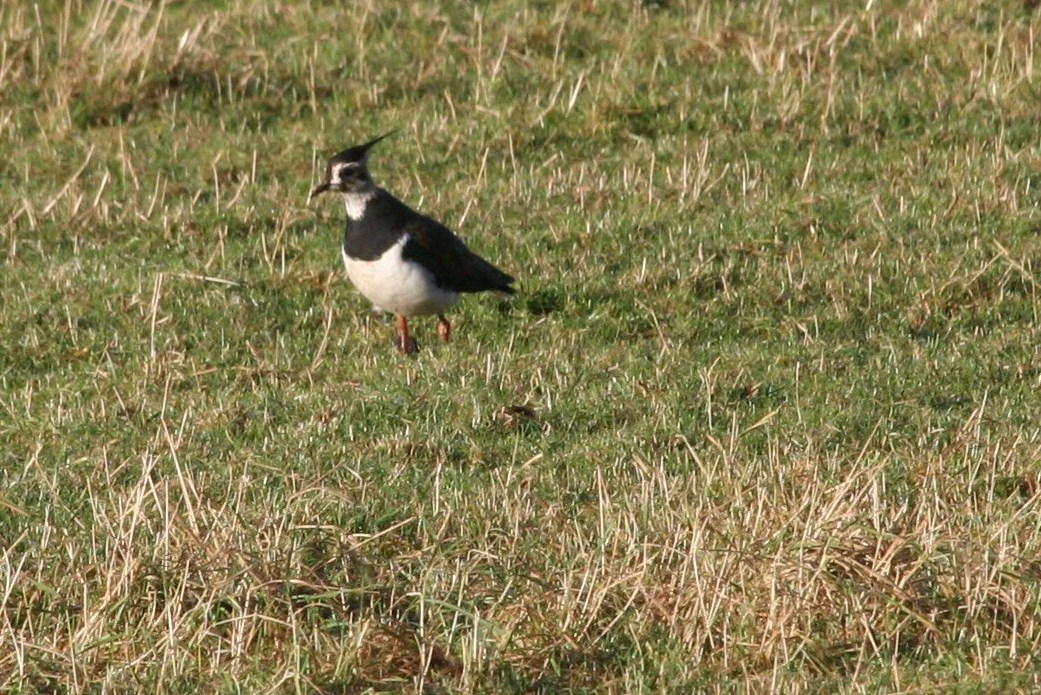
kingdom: Animalia
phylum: Chordata
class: Aves
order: Charadriiformes
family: Charadriidae
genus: Vanellus
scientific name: Vanellus vanellus
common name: Northern lapwing
